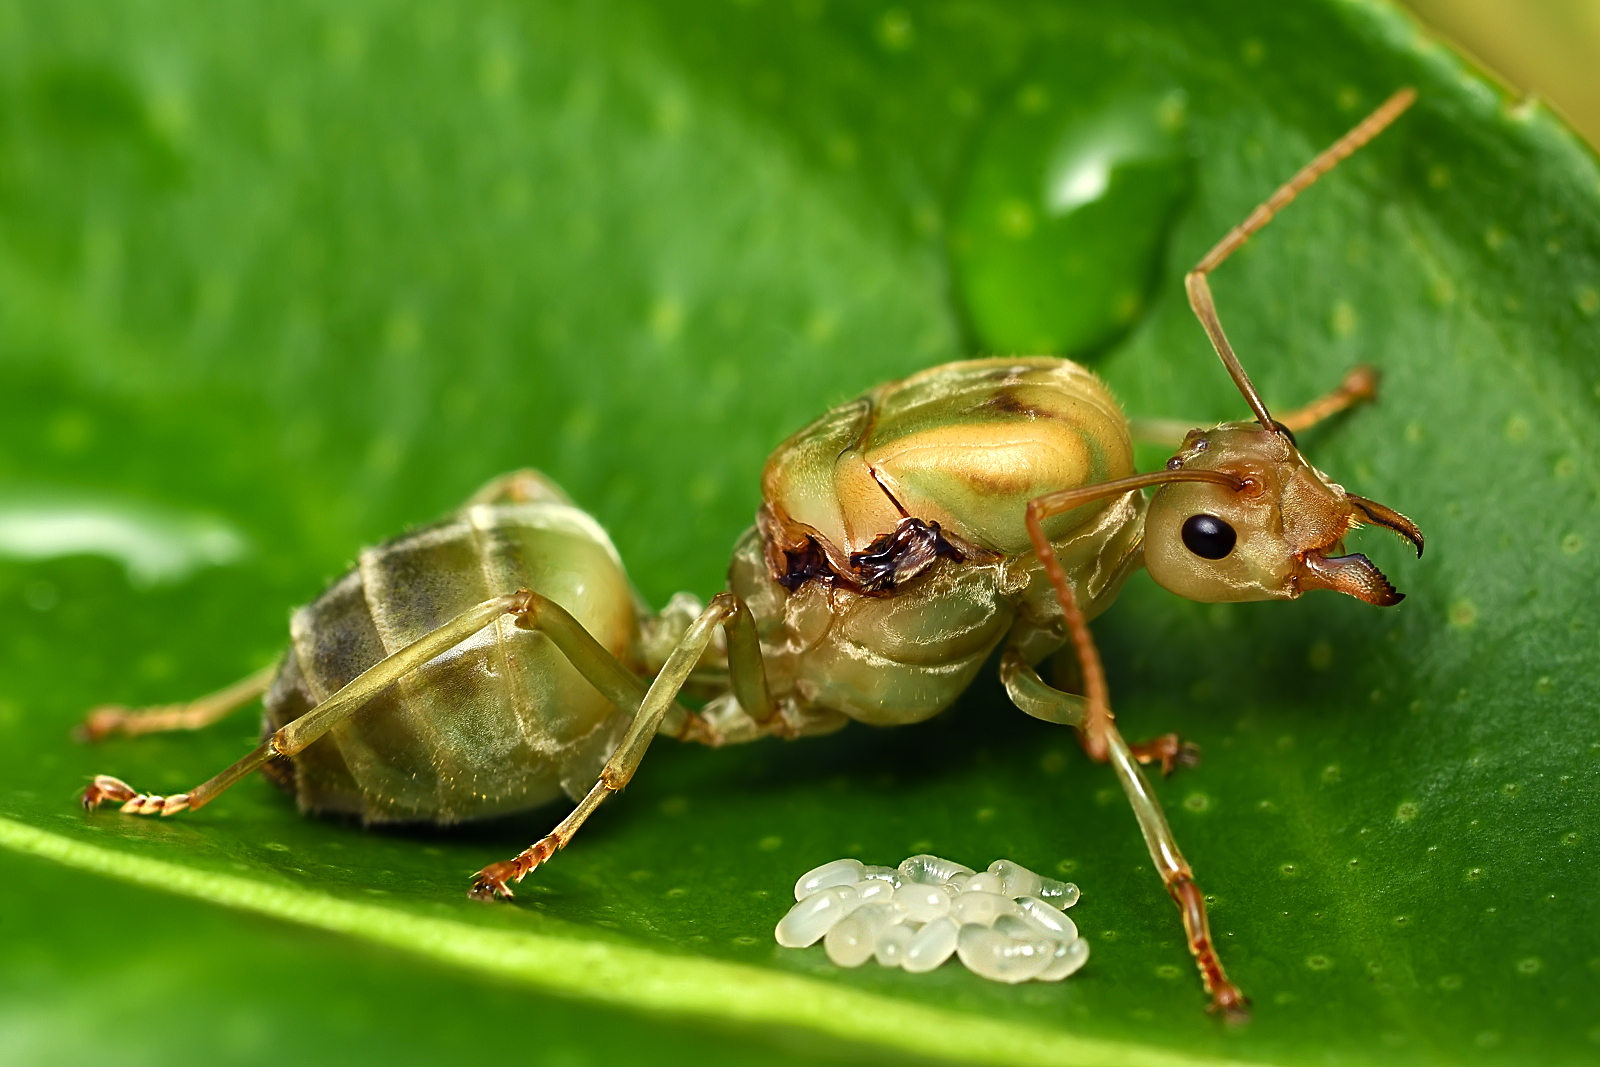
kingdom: Animalia
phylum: Arthropoda
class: Insecta
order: Hymenoptera
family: Formicidae
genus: Oecophylla
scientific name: Oecophylla smaragdina
